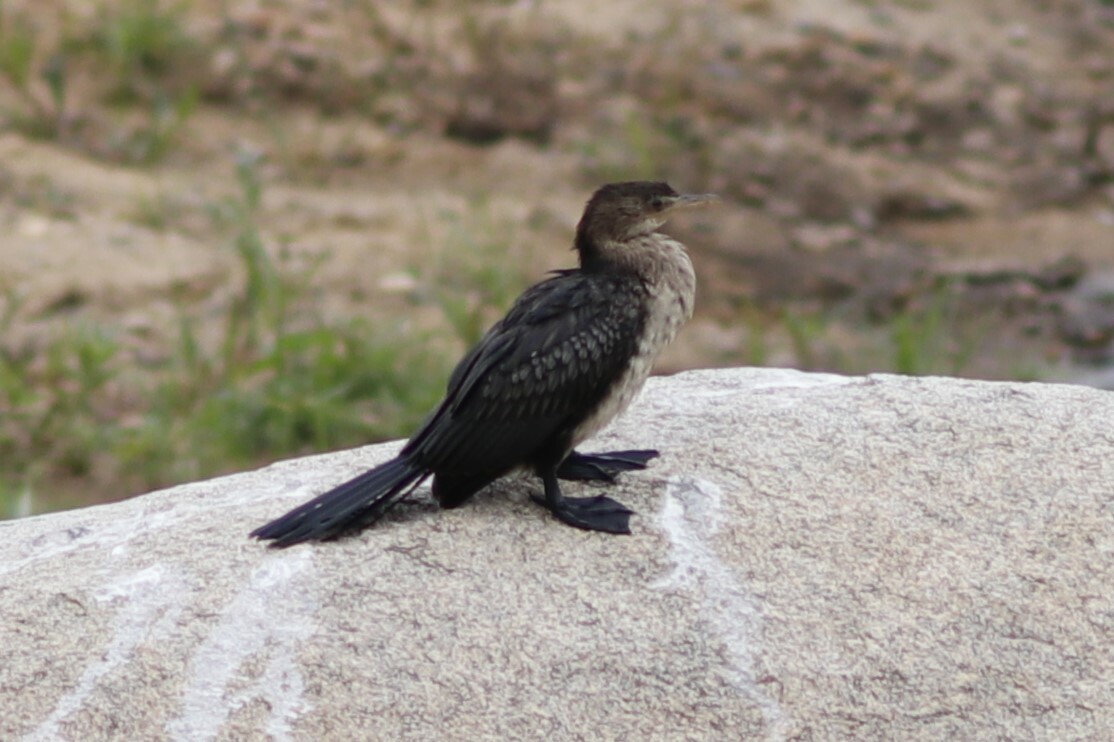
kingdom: Animalia
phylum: Chordata
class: Aves
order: Suliformes
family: Phalacrocoracidae
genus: Microcarbo
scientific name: Microcarbo africanus
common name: Long-tailed cormorant
